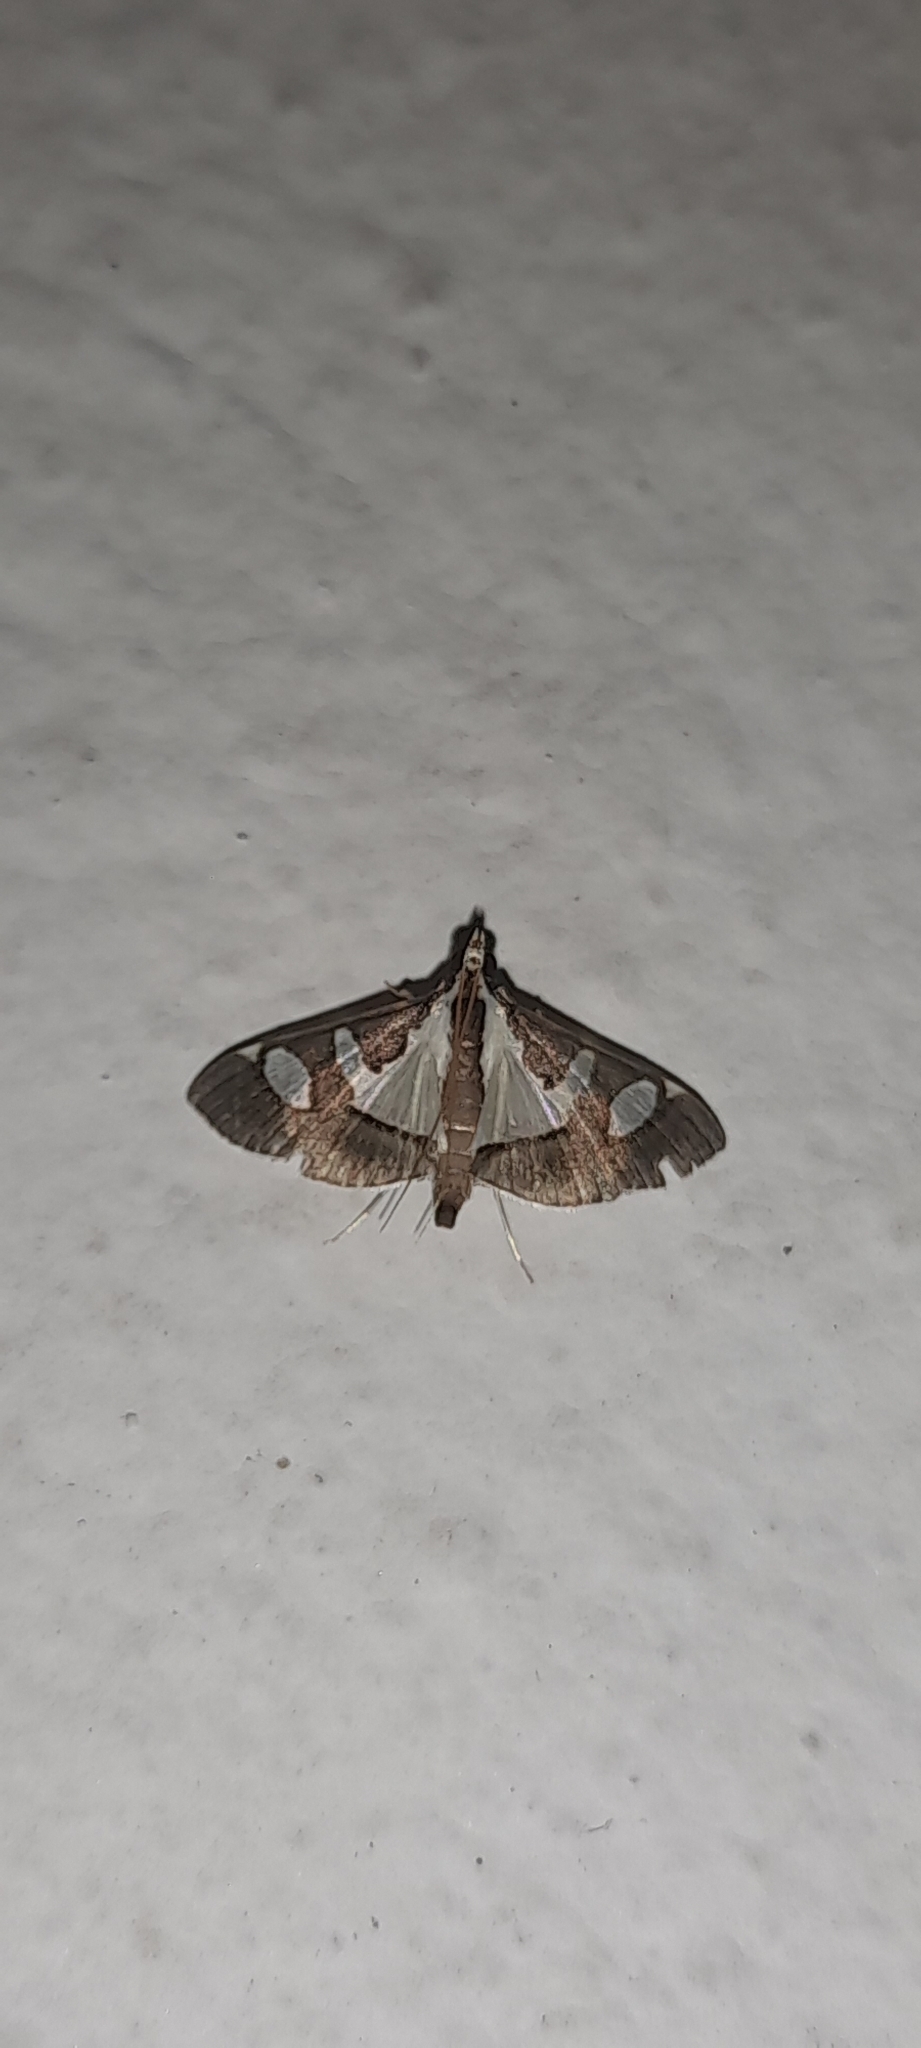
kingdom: Animalia
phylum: Arthropoda
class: Insecta
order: Lepidoptera
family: Crambidae
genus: Glyphodes
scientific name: Glyphodes bicolor
